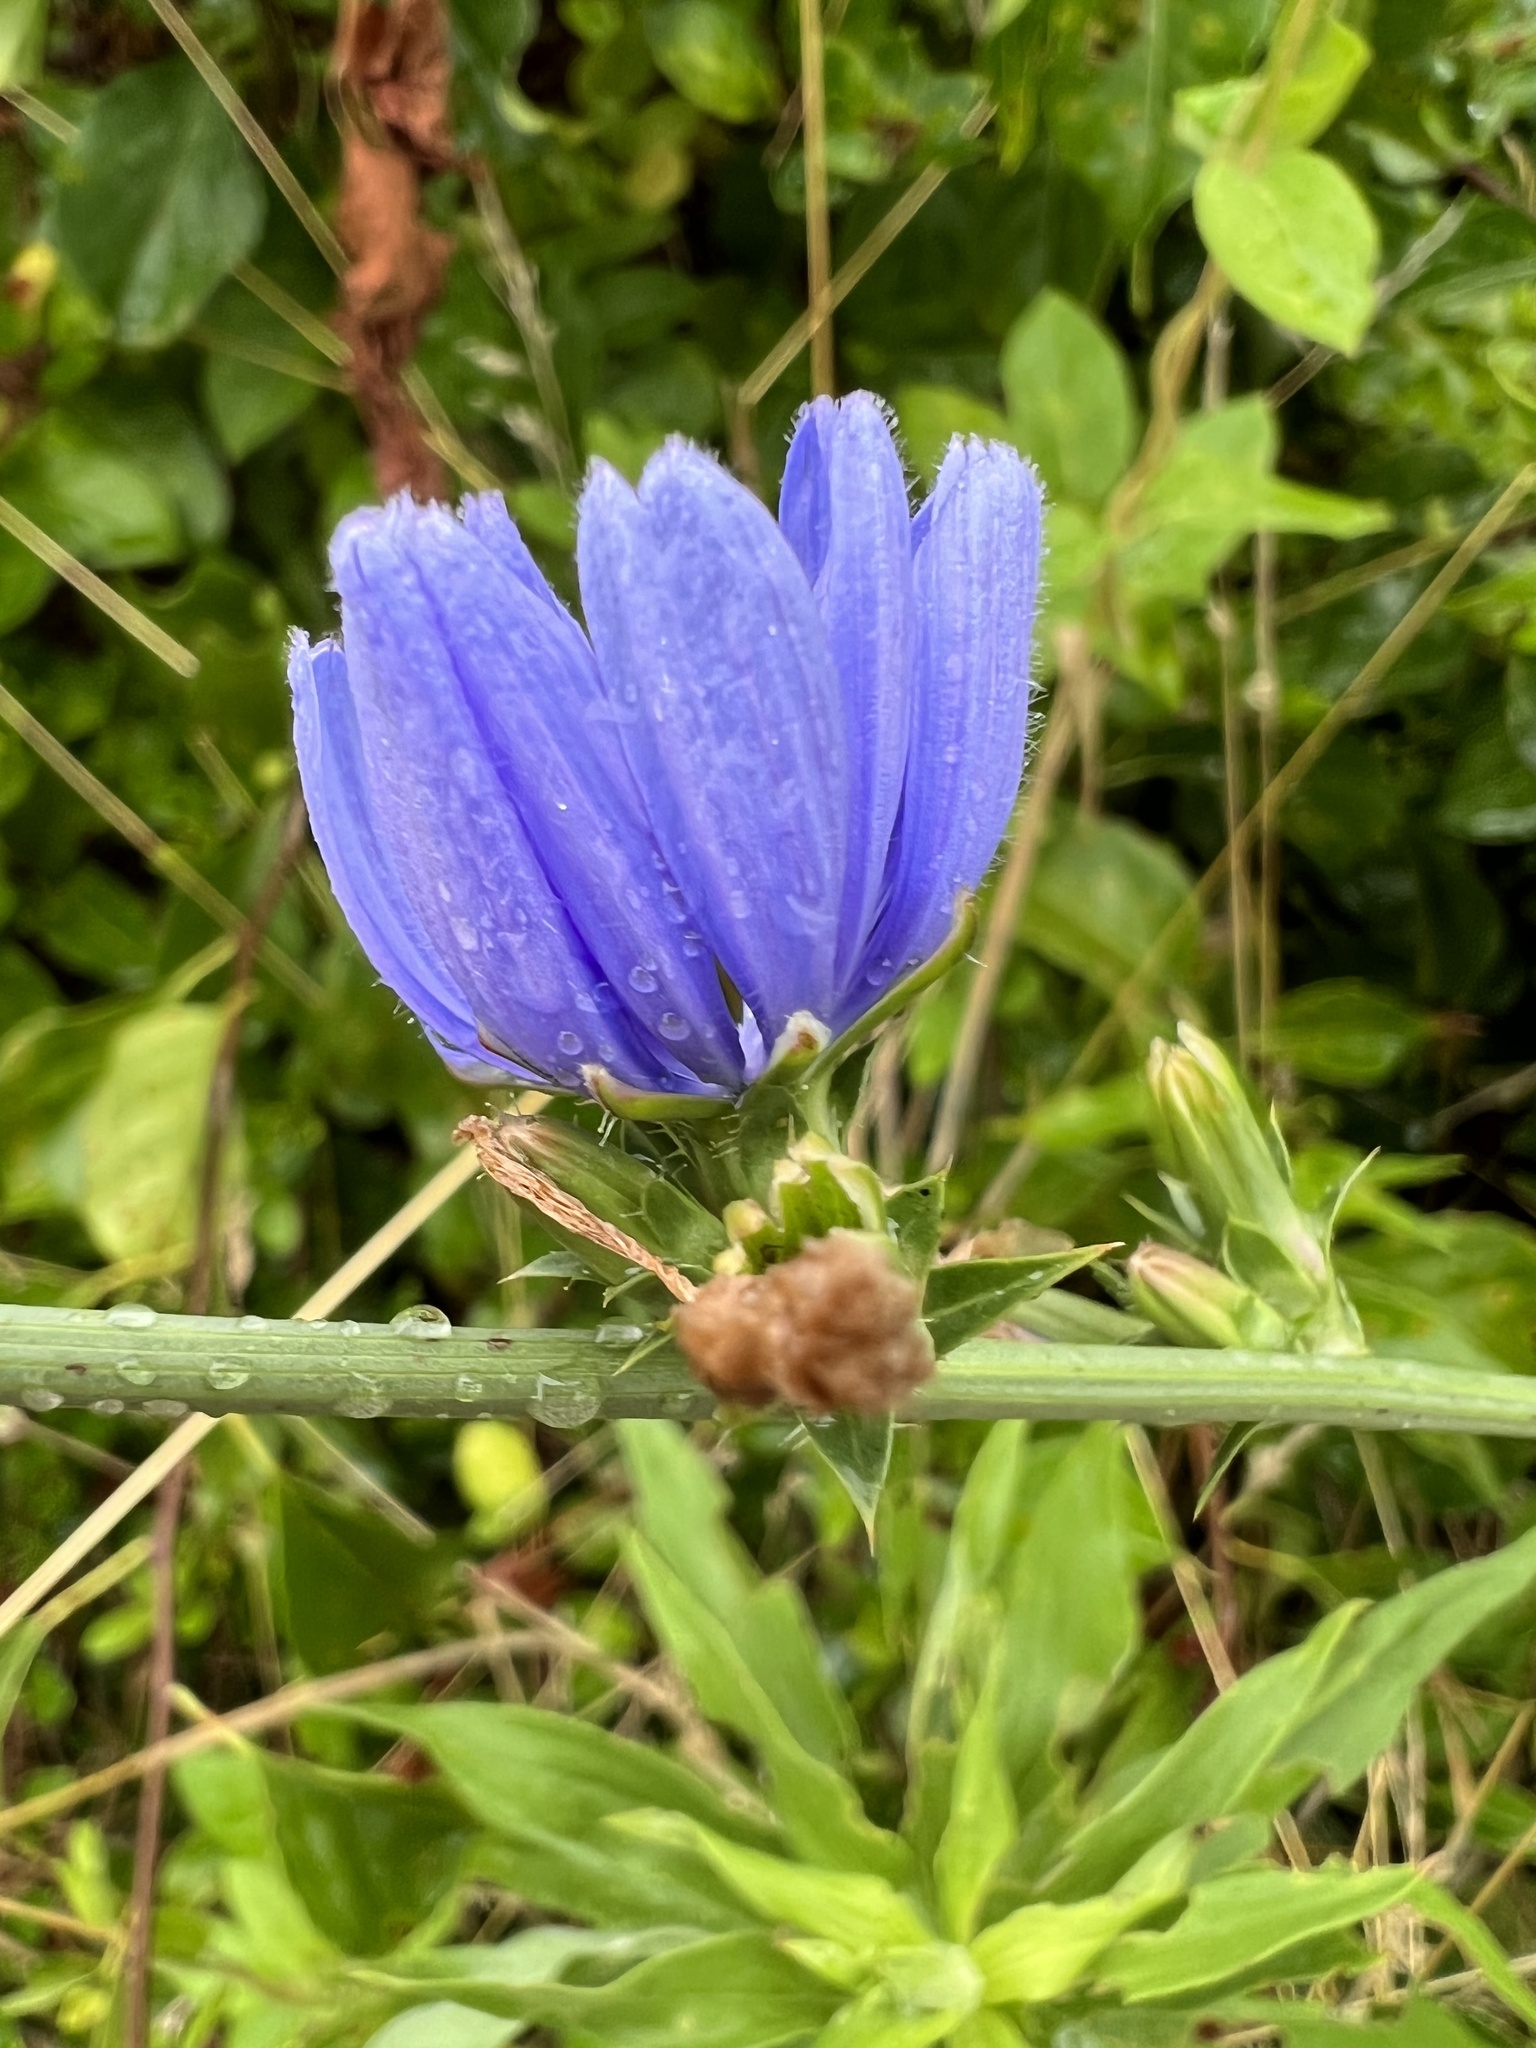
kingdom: Plantae
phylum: Tracheophyta
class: Magnoliopsida
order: Asterales
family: Asteraceae
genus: Cichorium
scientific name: Cichorium intybus
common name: Chicory
